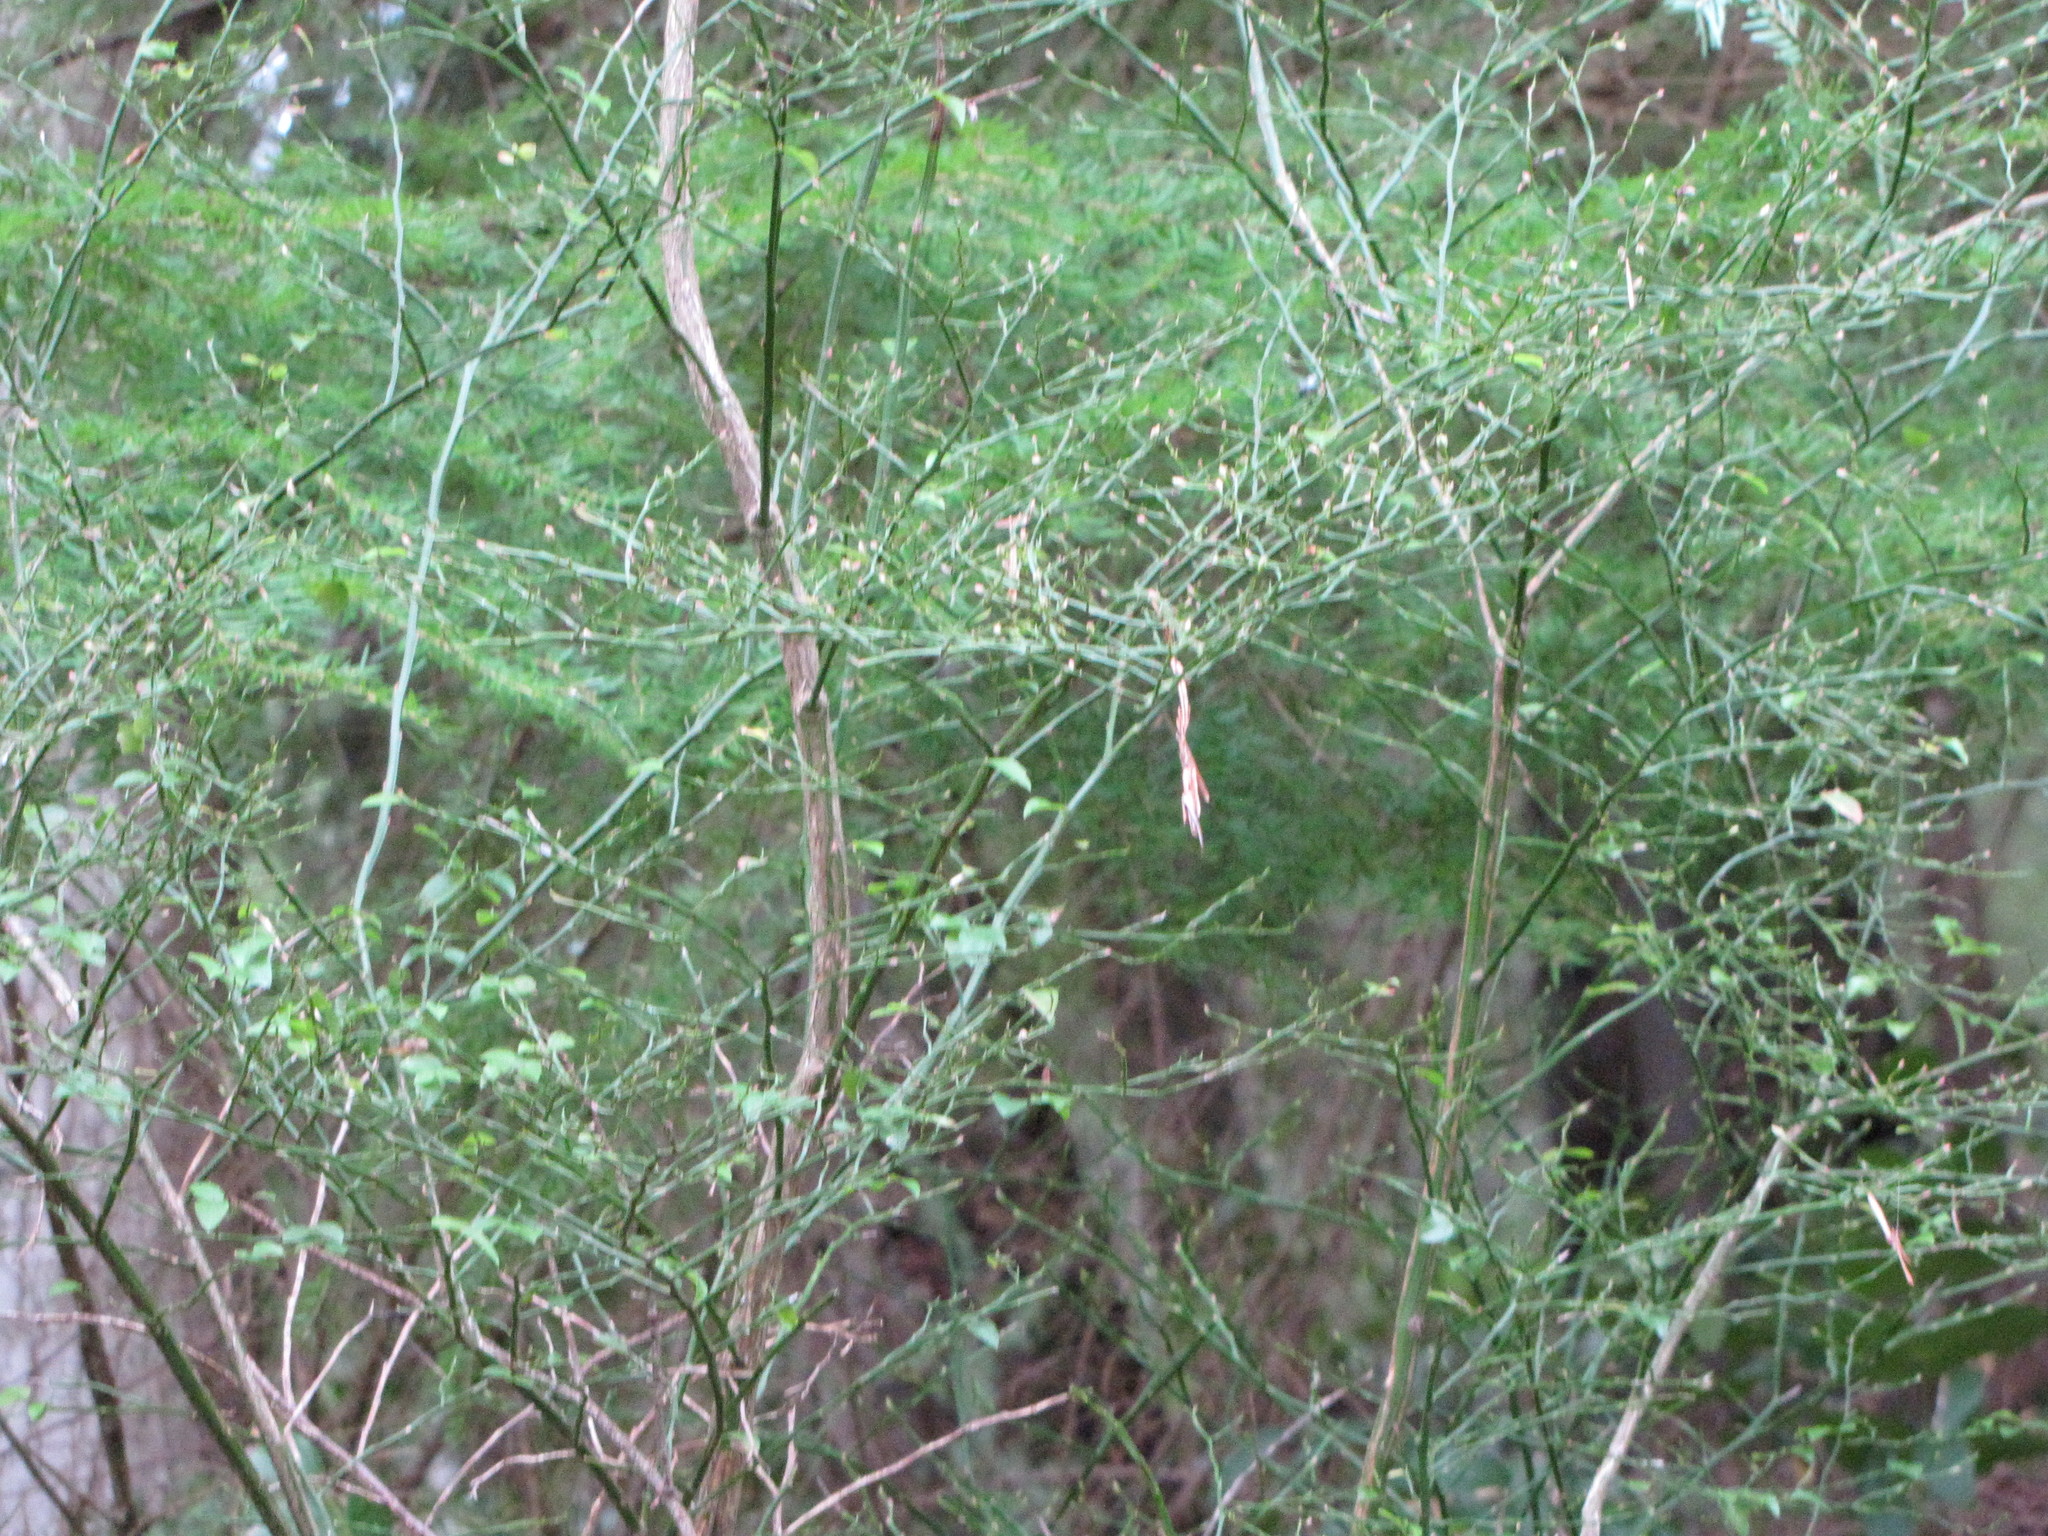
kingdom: Plantae
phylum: Tracheophyta
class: Magnoliopsida
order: Ericales
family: Ericaceae
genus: Vaccinium
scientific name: Vaccinium parvifolium
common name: Red-huckleberry
